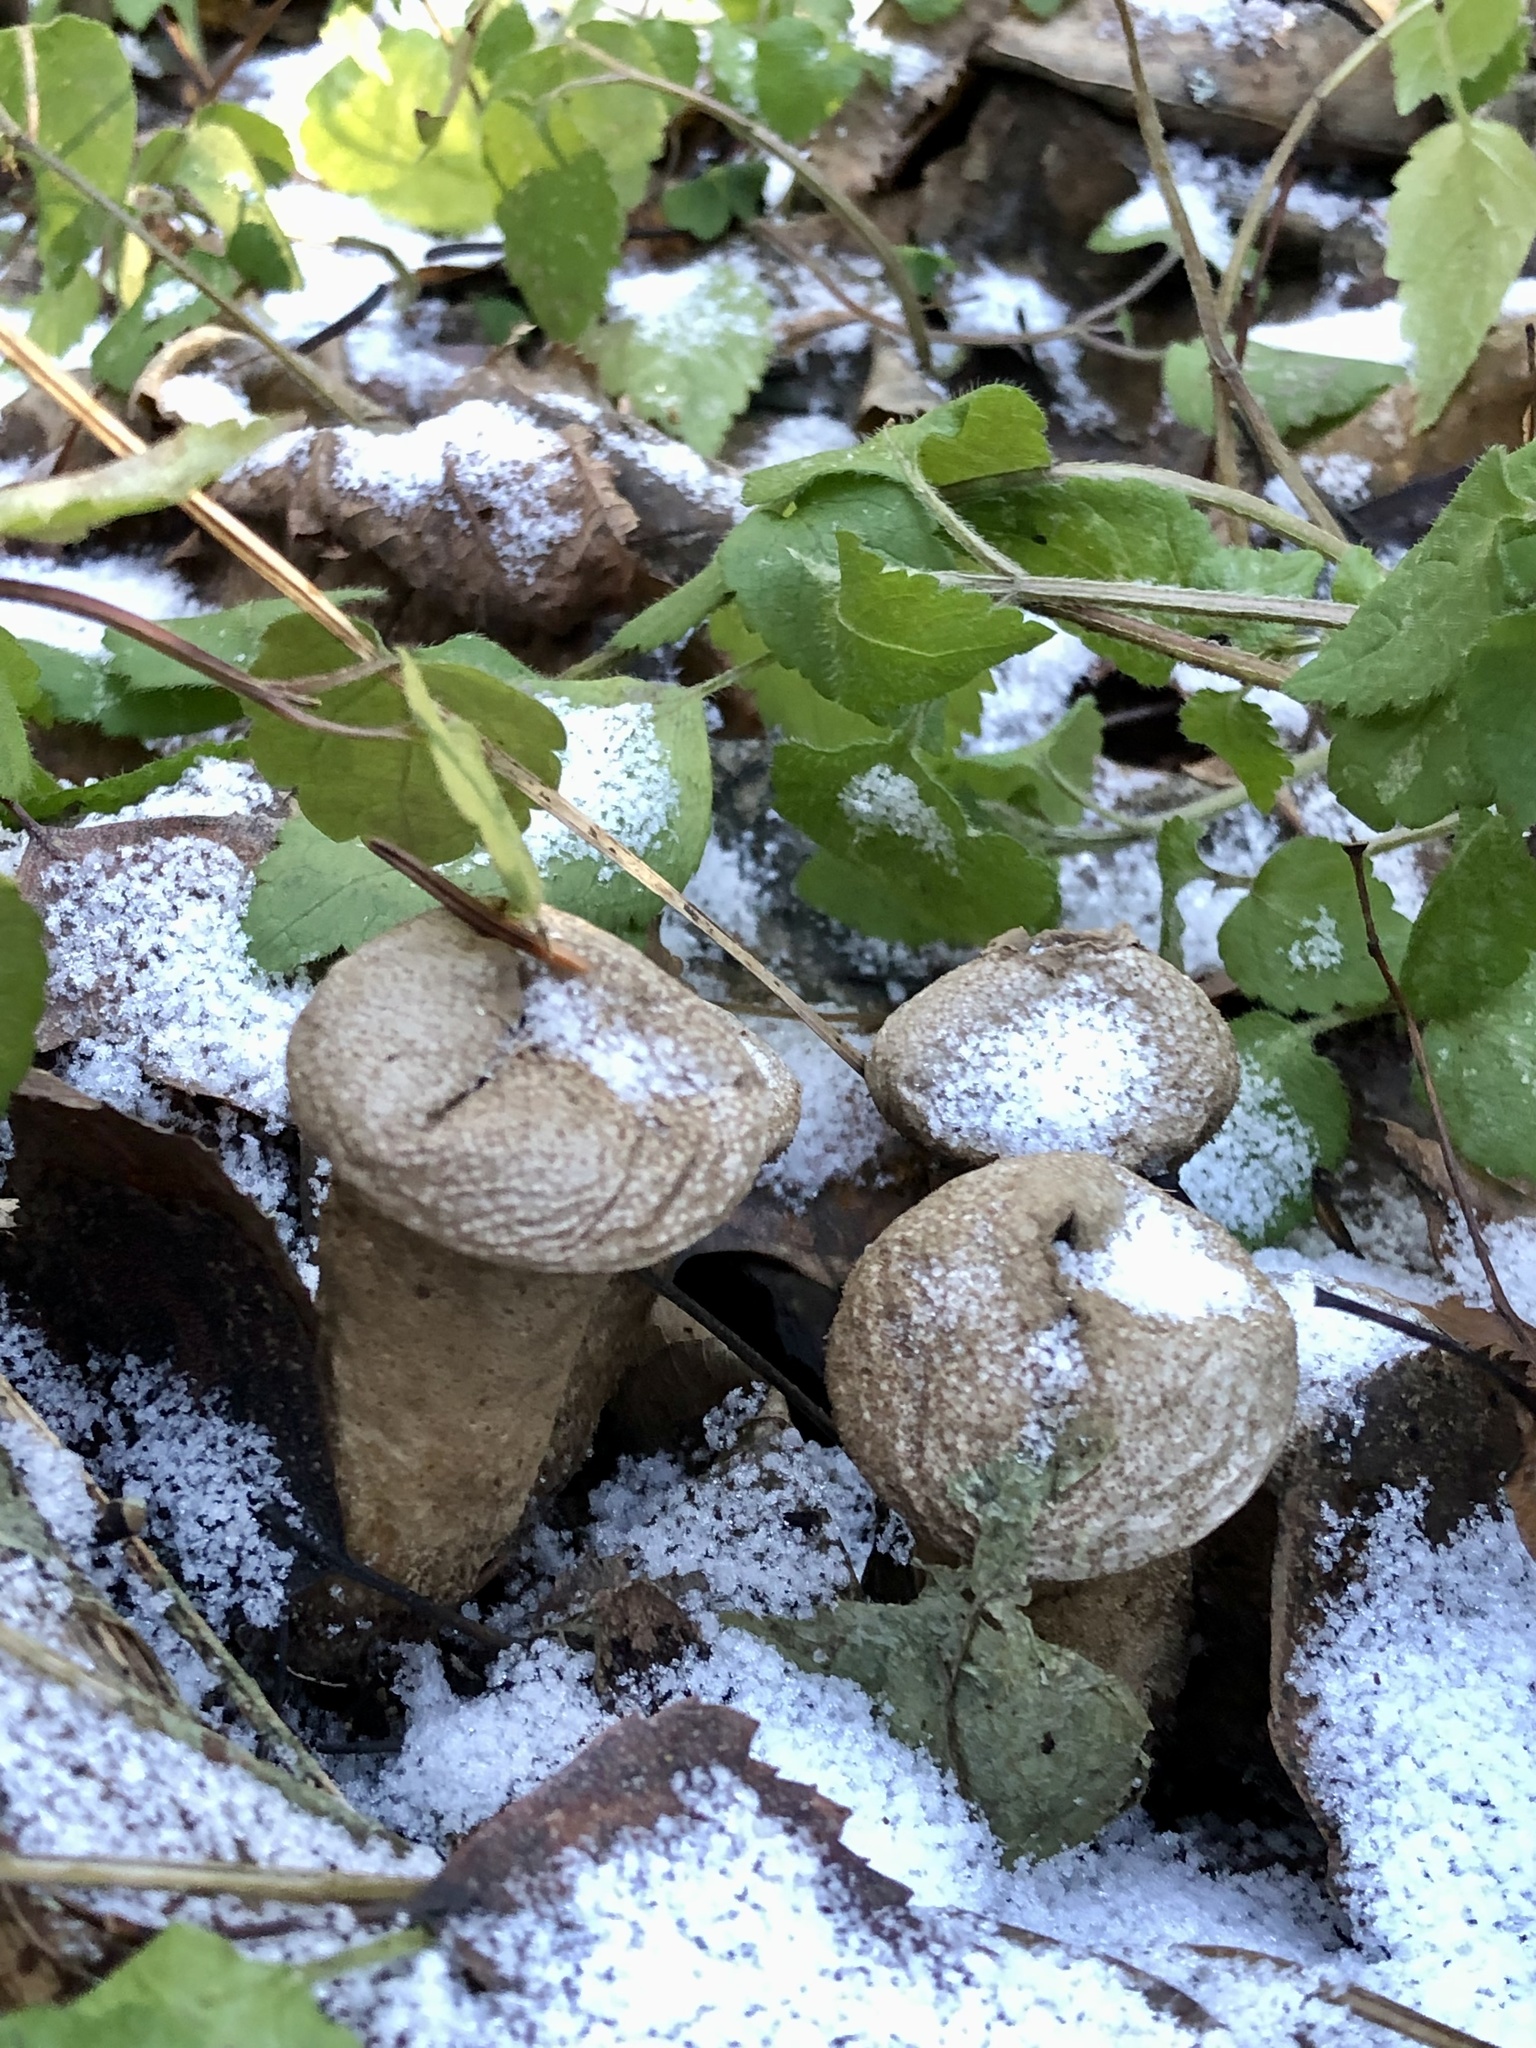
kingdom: Fungi
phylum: Basidiomycota
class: Agaricomycetes
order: Agaricales
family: Lycoperdaceae
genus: Lycoperdon
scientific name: Lycoperdon perlatum
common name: Common puffball
